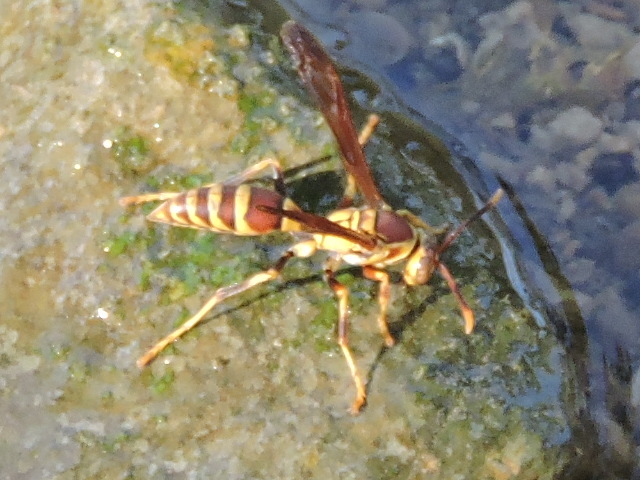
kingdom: Animalia
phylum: Arthropoda
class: Insecta
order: Hymenoptera
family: Eumenidae
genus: Polistes
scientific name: Polistes exclamans
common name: Paper wasp
